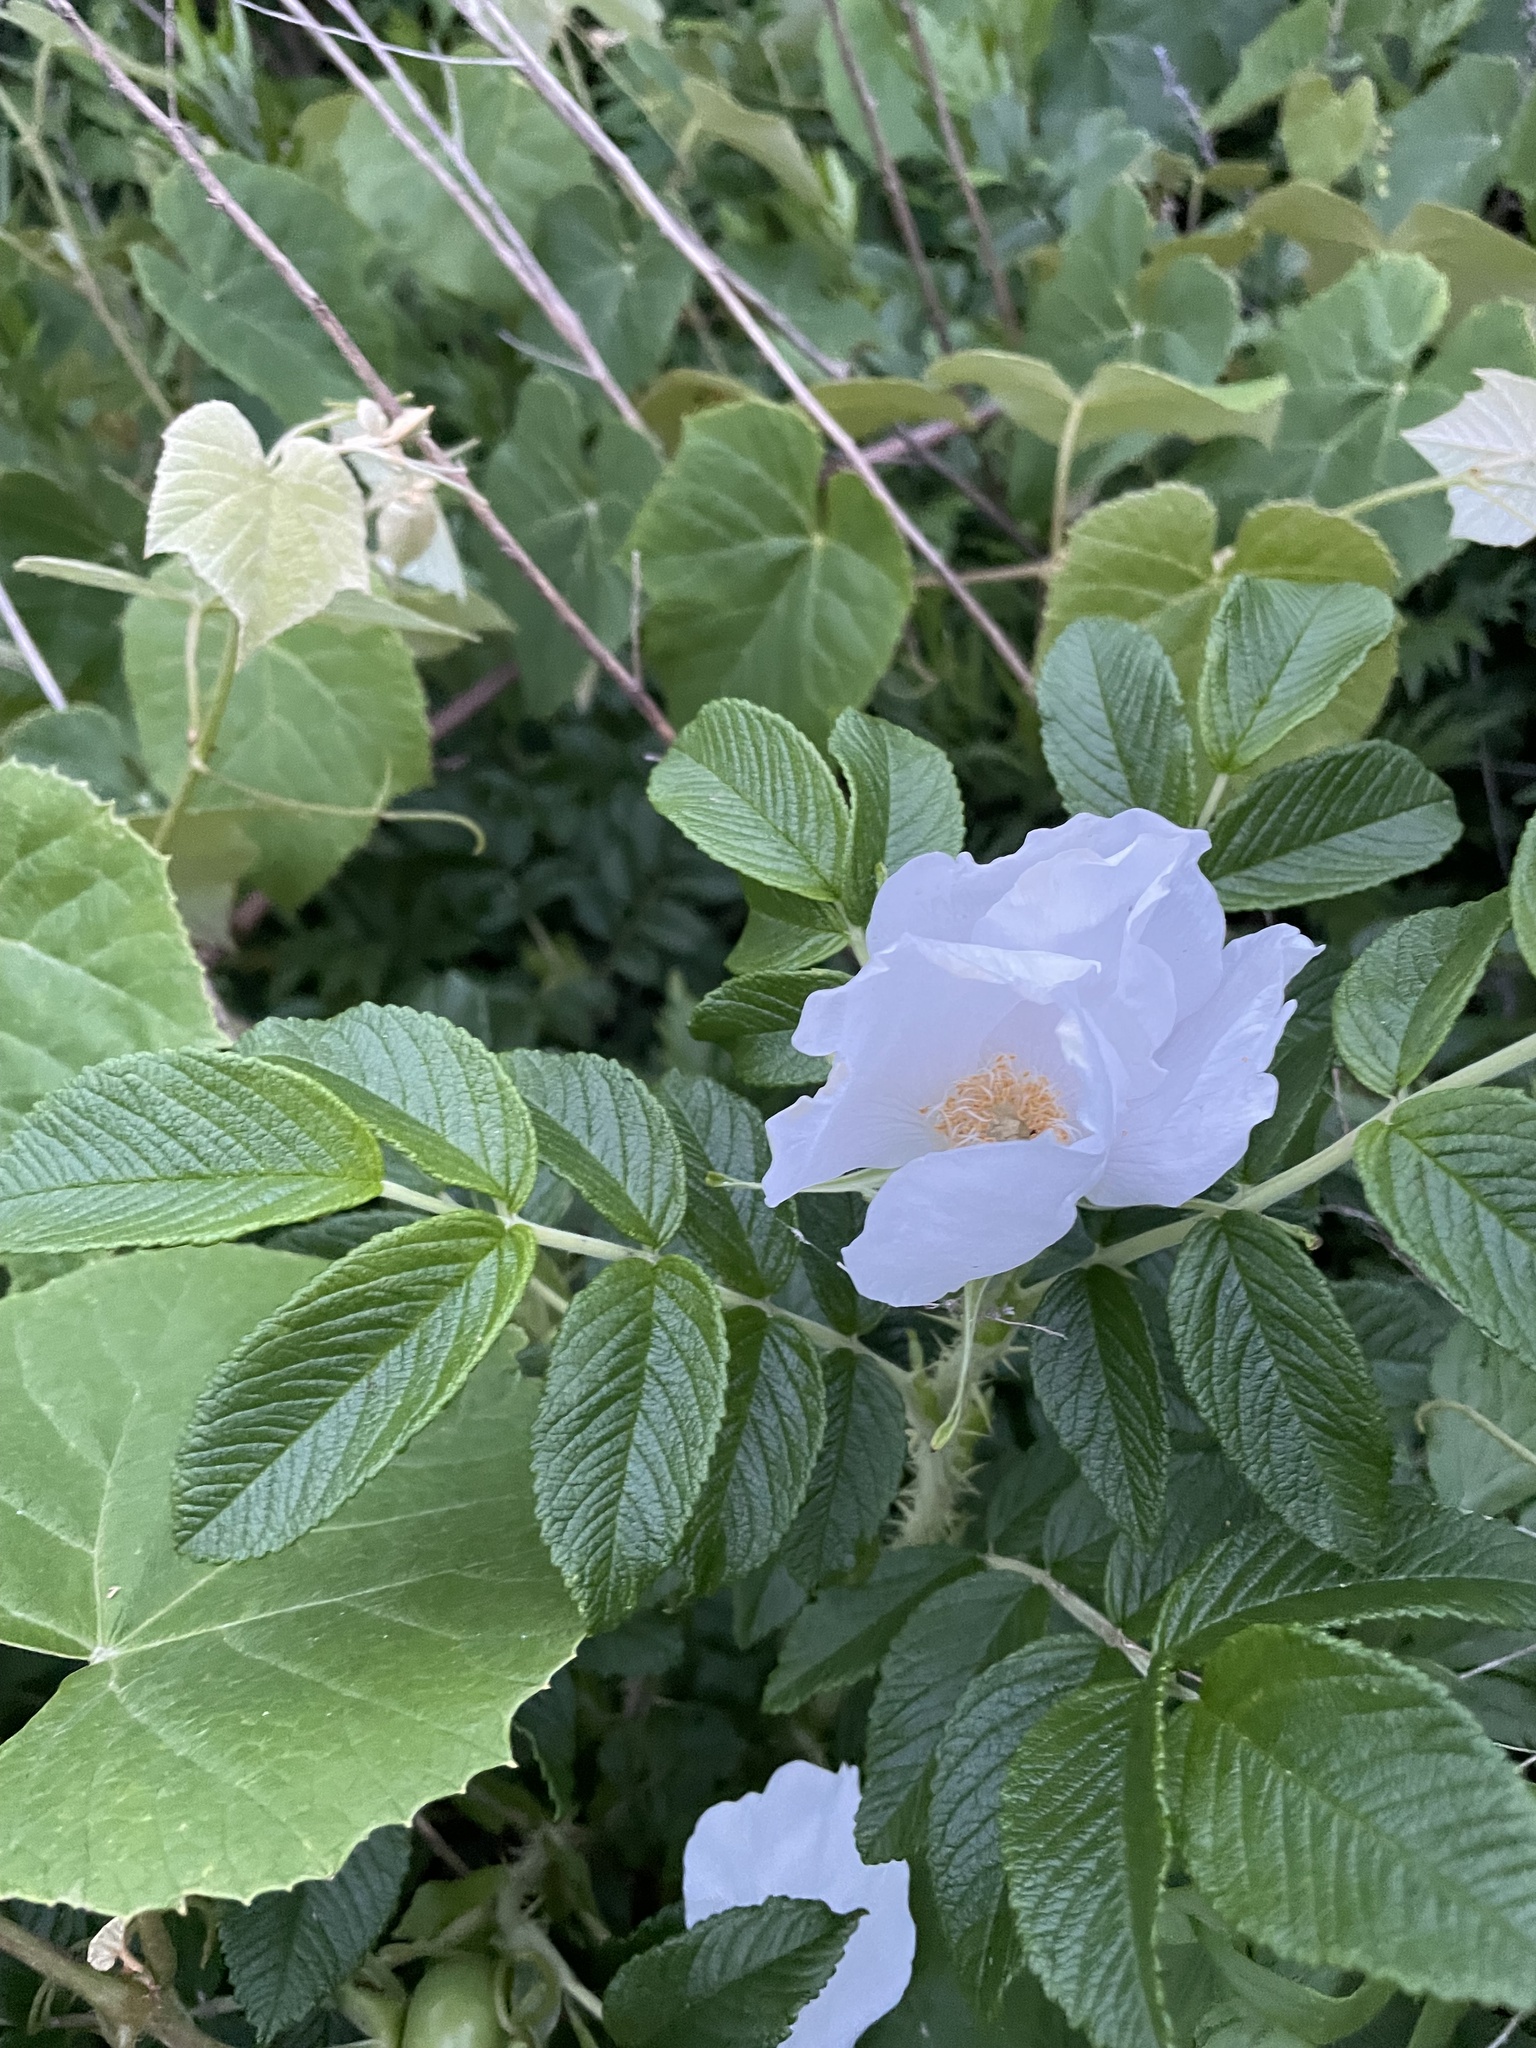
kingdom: Plantae
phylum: Tracheophyta
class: Magnoliopsida
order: Rosales
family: Rosaceae
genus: Rosa
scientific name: Rosa rugosa
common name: Japanese rose
